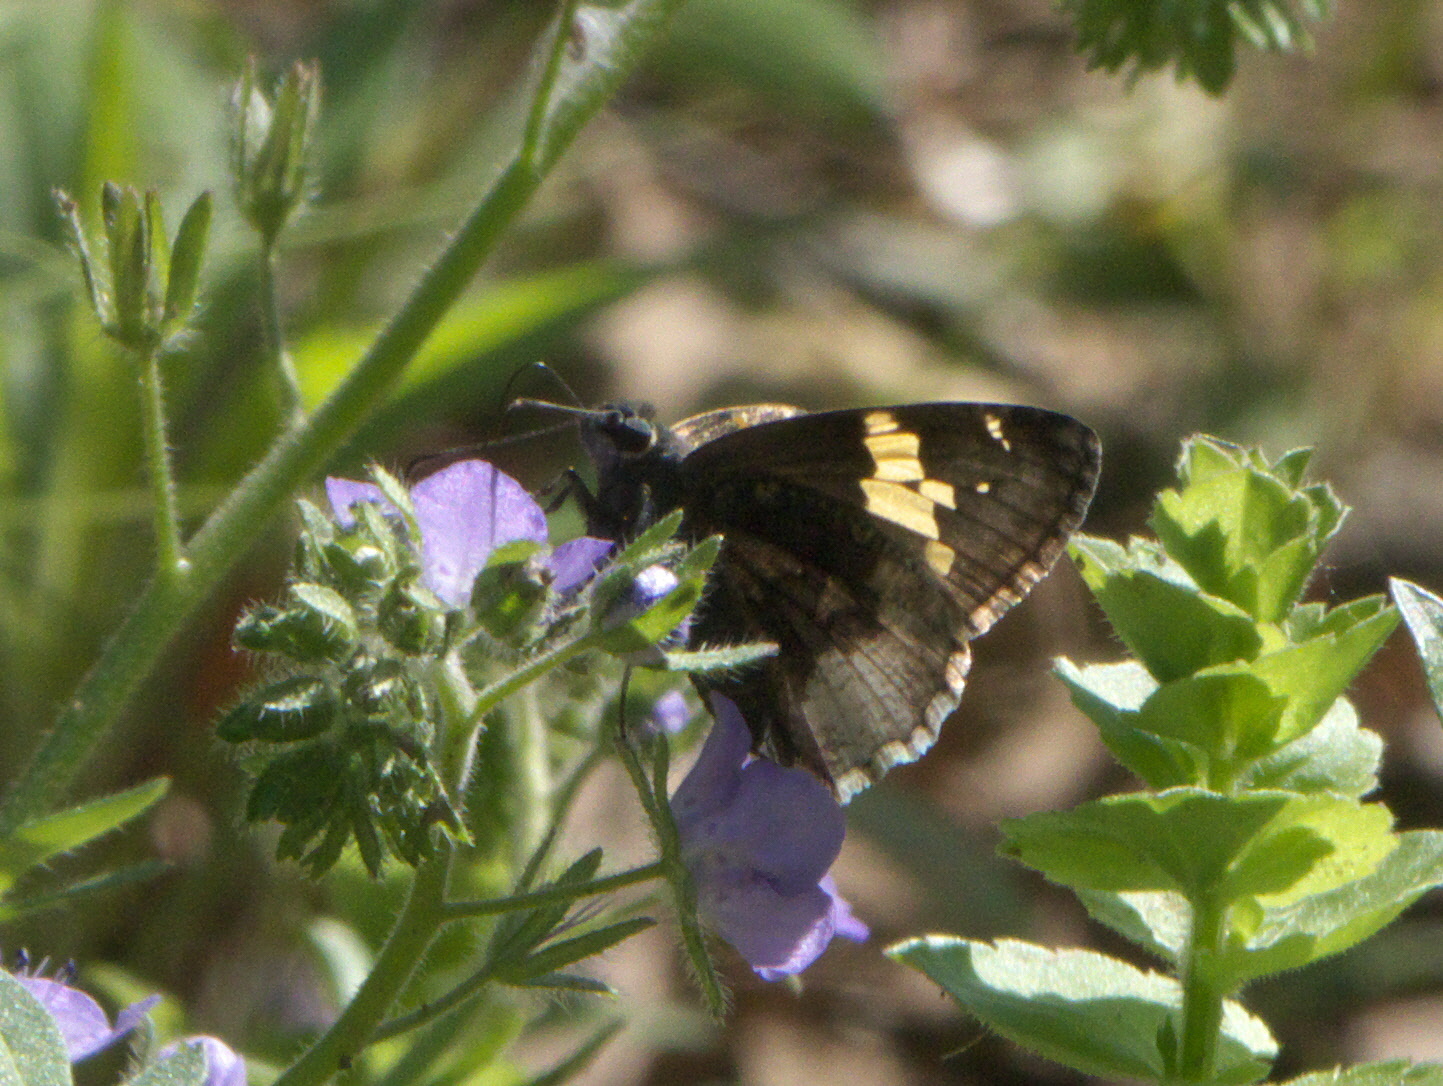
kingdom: Animalia
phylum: Arthropoda
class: Insecta
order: Lepidoptera
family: Hesperiidae
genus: Thorybes
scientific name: Thorybes lyciades
